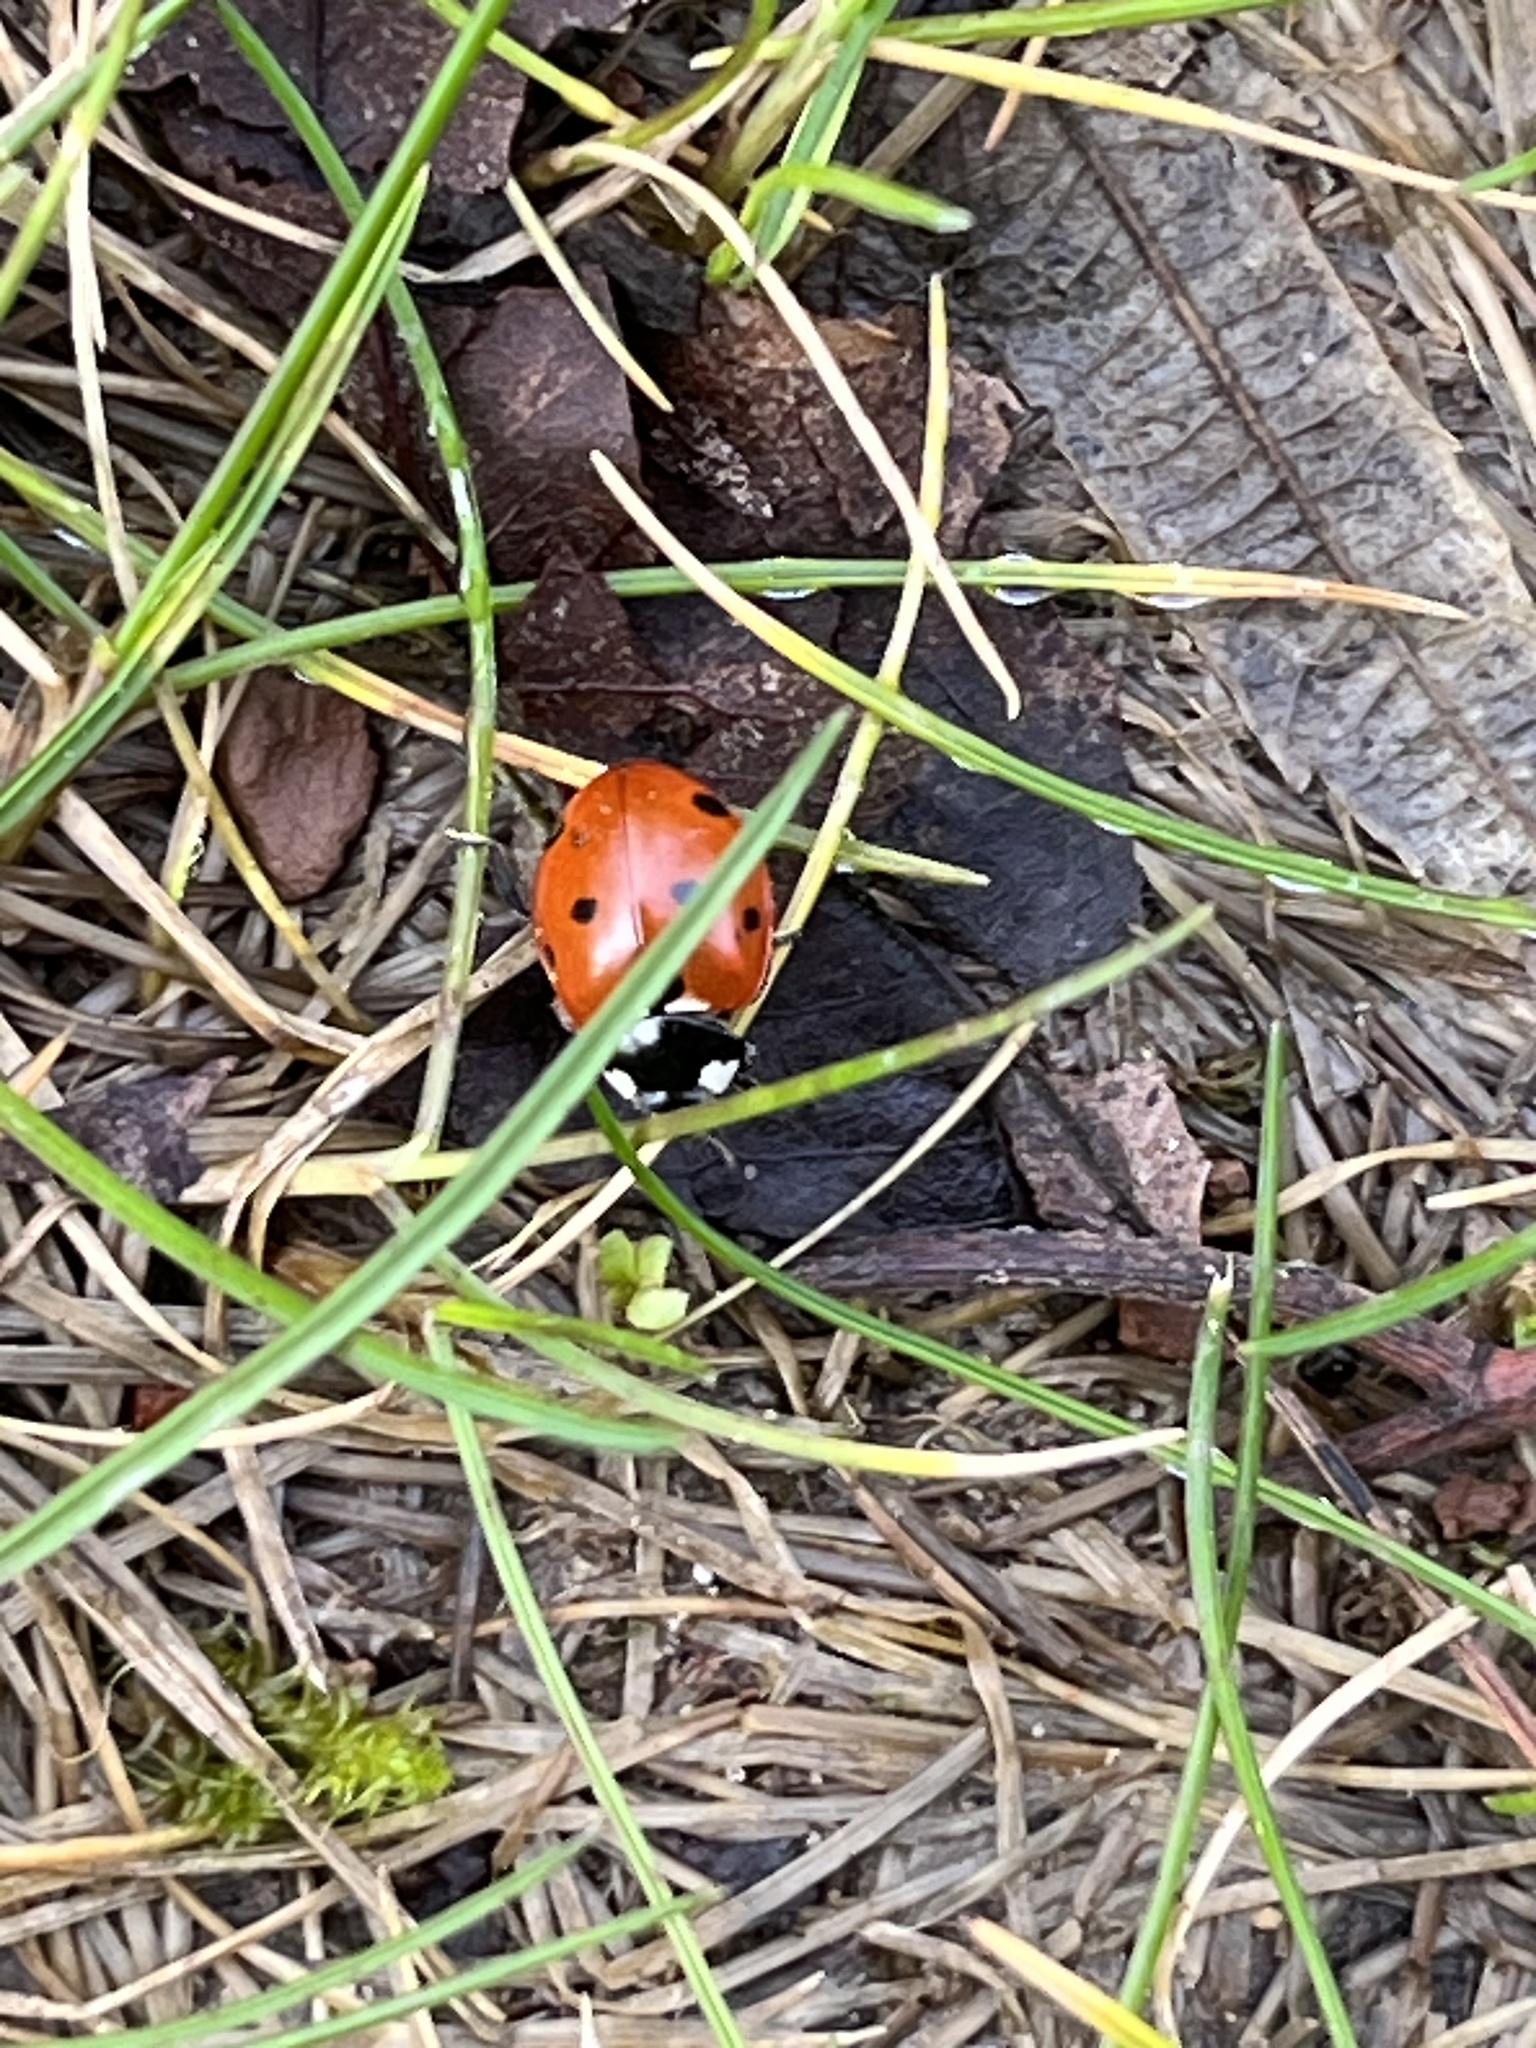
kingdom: Animalia
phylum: Arthropoda
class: Insecta
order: Coleoptera
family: Coccinellidae
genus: Coccinella
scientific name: Coccinella septempunctata
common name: Sevenspotted lady beetle
